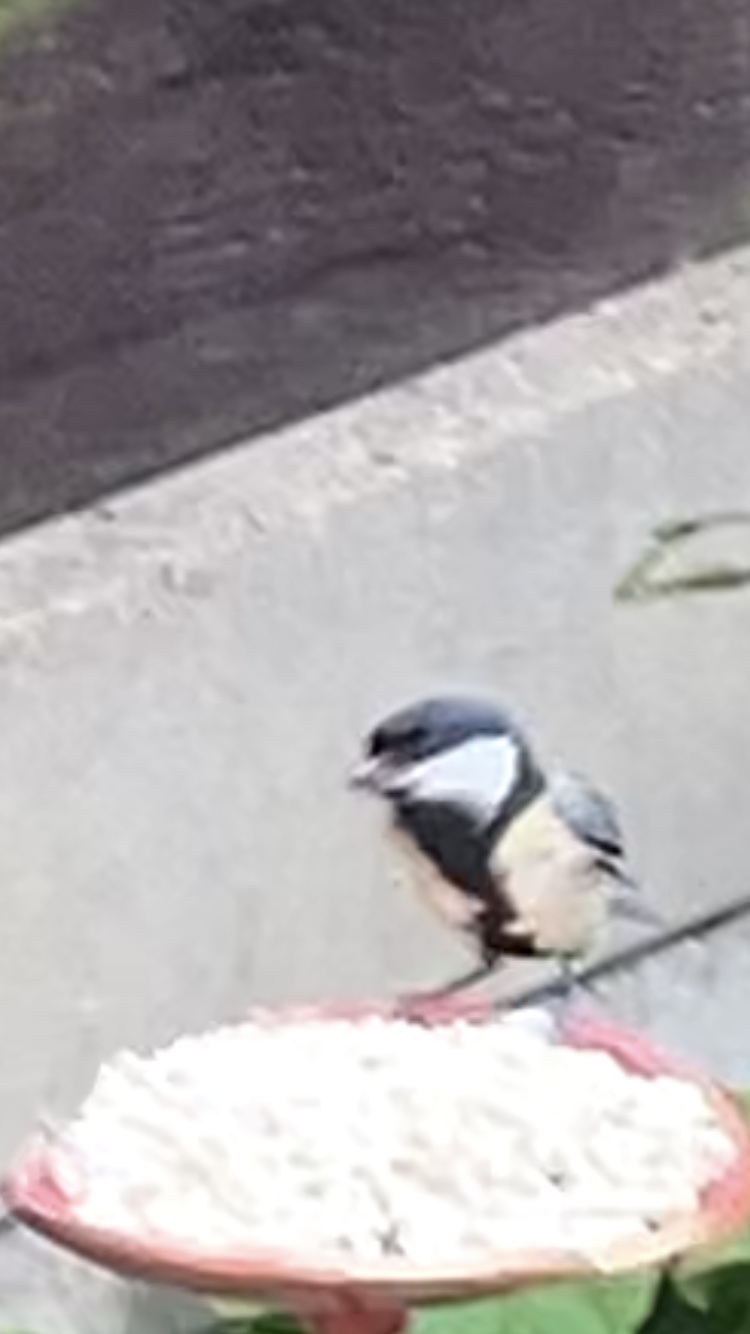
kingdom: Animalia
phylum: Chordata
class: Aves
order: Passeriformes
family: Paridae
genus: Parus
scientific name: Parus major
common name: Great tit
